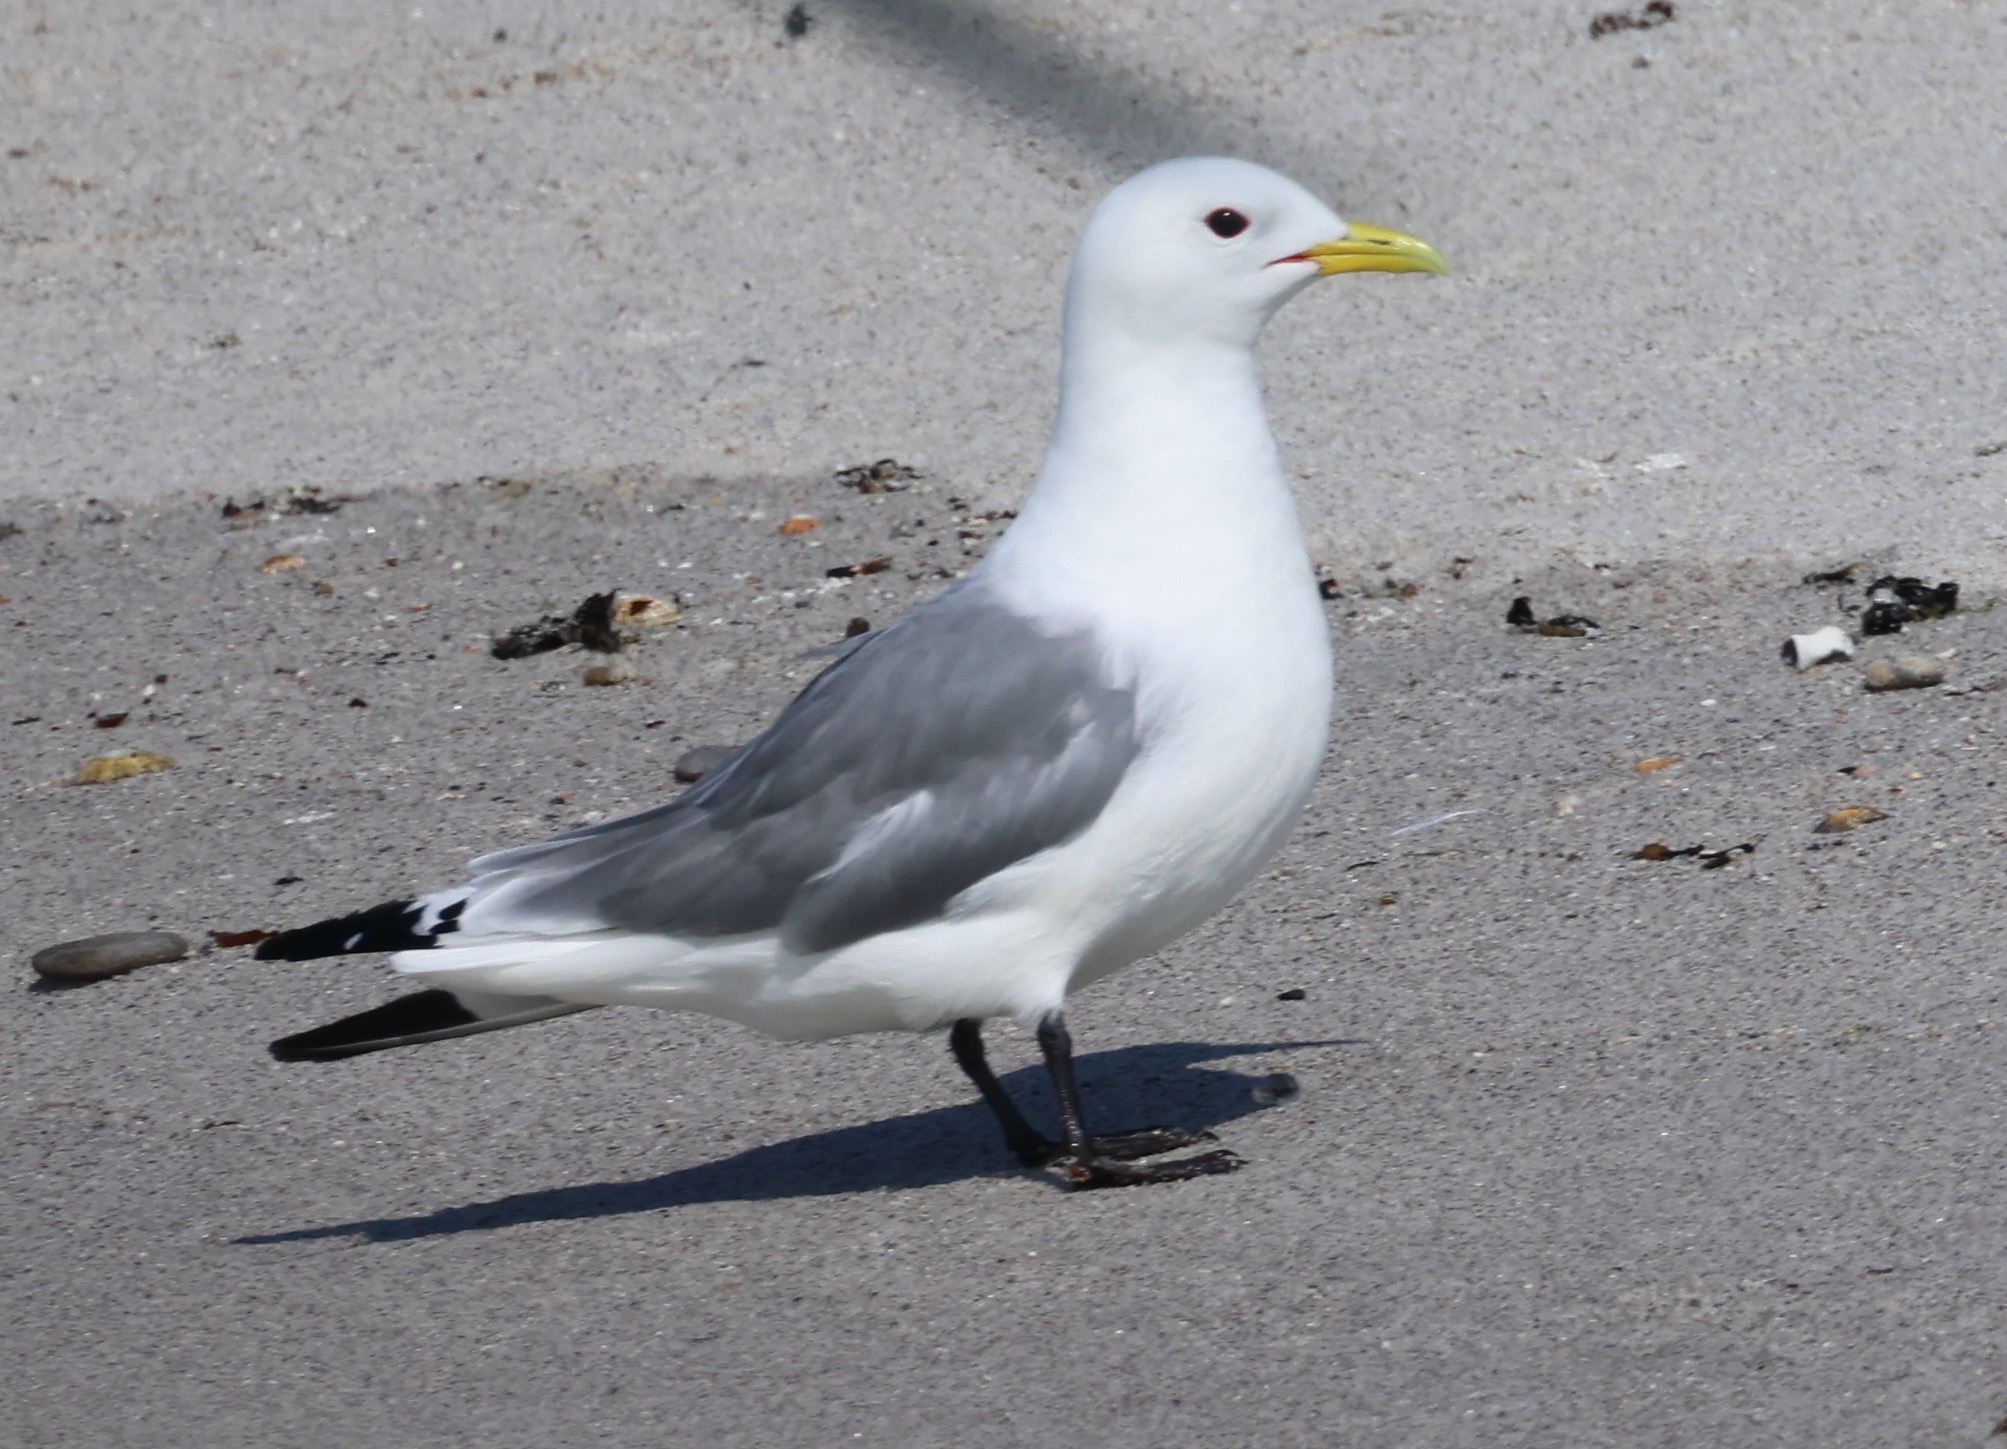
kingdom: Animalia
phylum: Chordata
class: Aves
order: Charadriiformes
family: Laridae
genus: Rissa
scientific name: Rissa tridactyla
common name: Black-legged kittiwake
